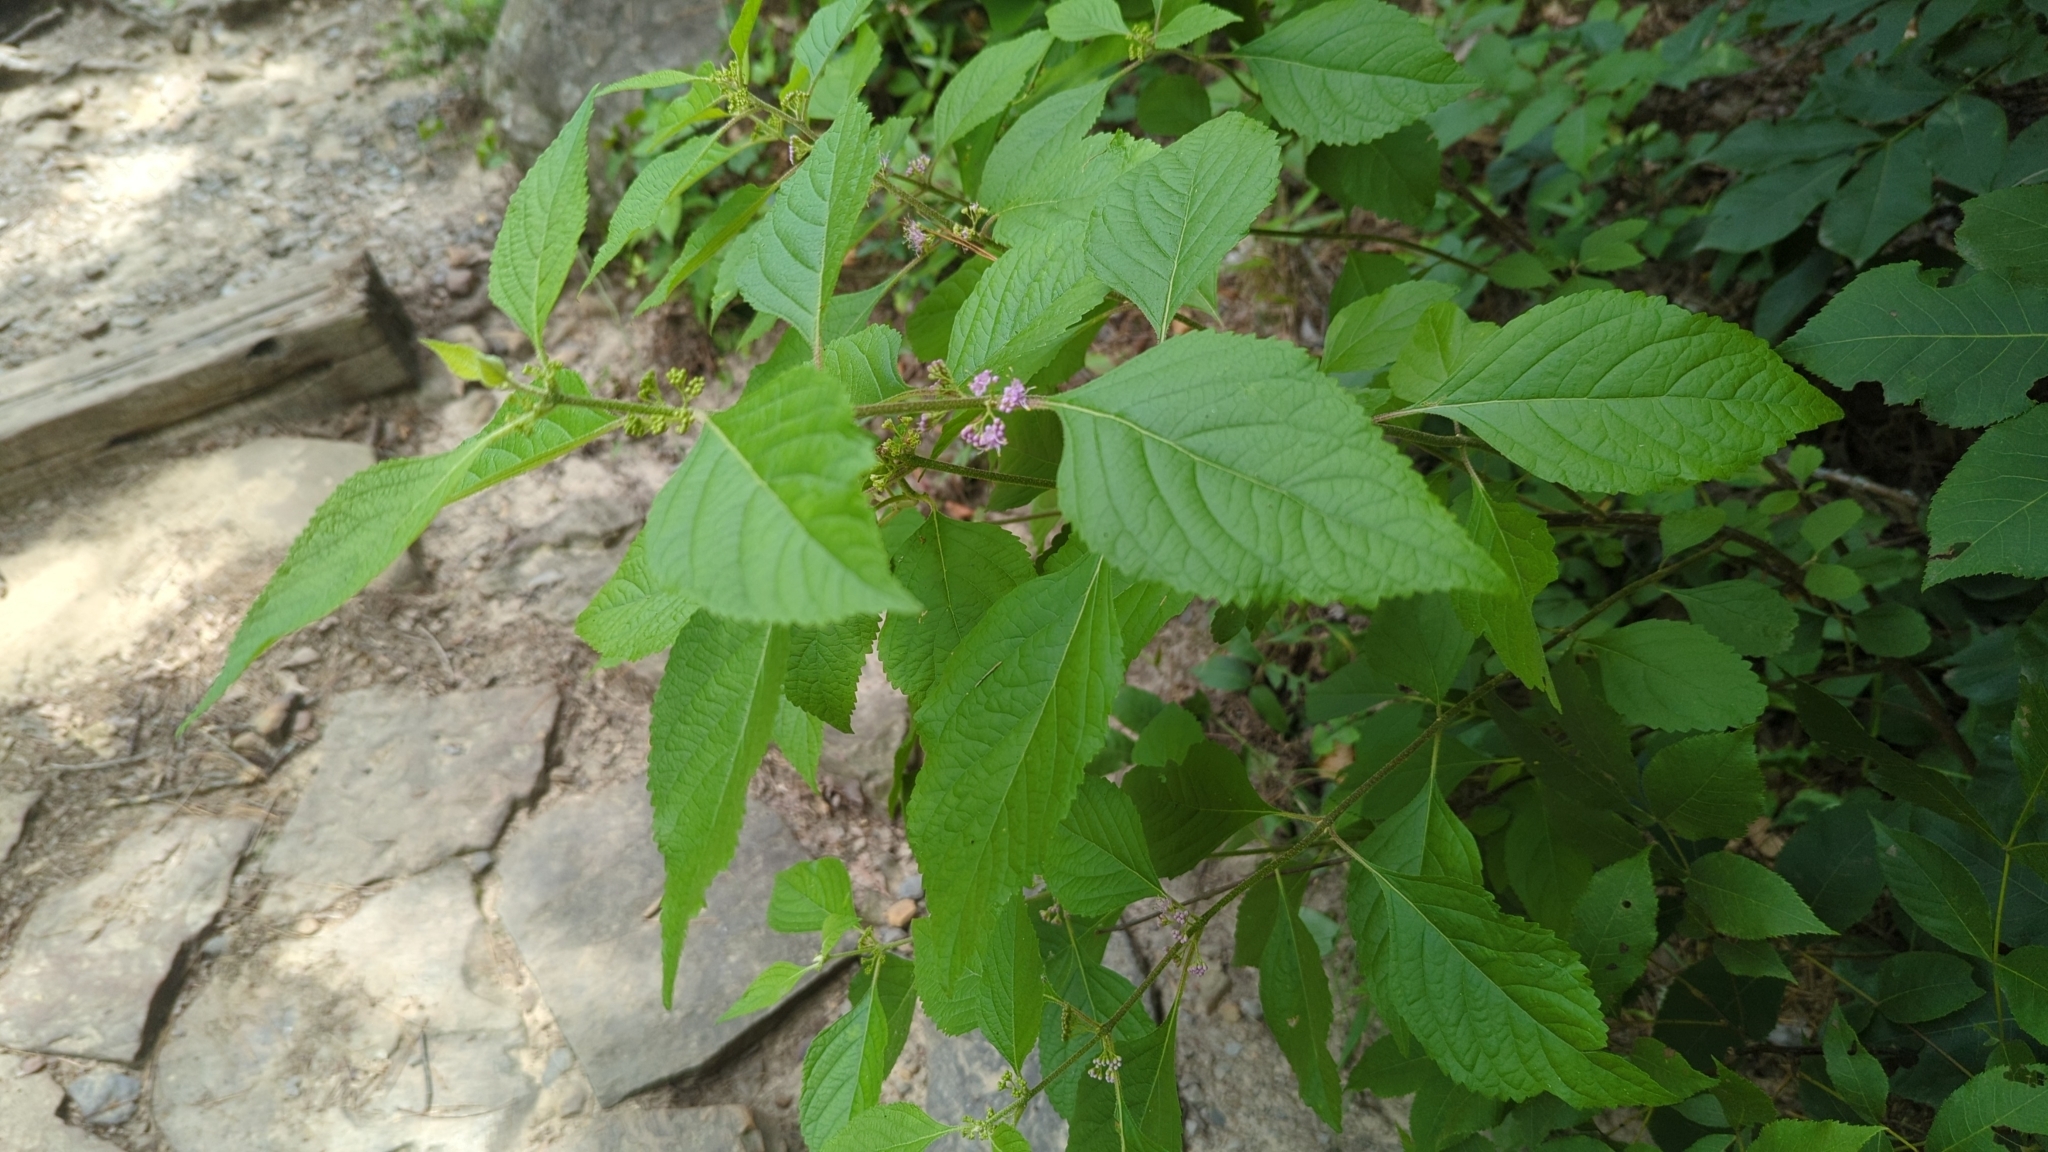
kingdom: Plantae
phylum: Tracheophyta
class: Magnoliopsida
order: Lamiales
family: Lamiaceae
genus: Callicarpa
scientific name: Callicarpa americana
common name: American beautyberry
